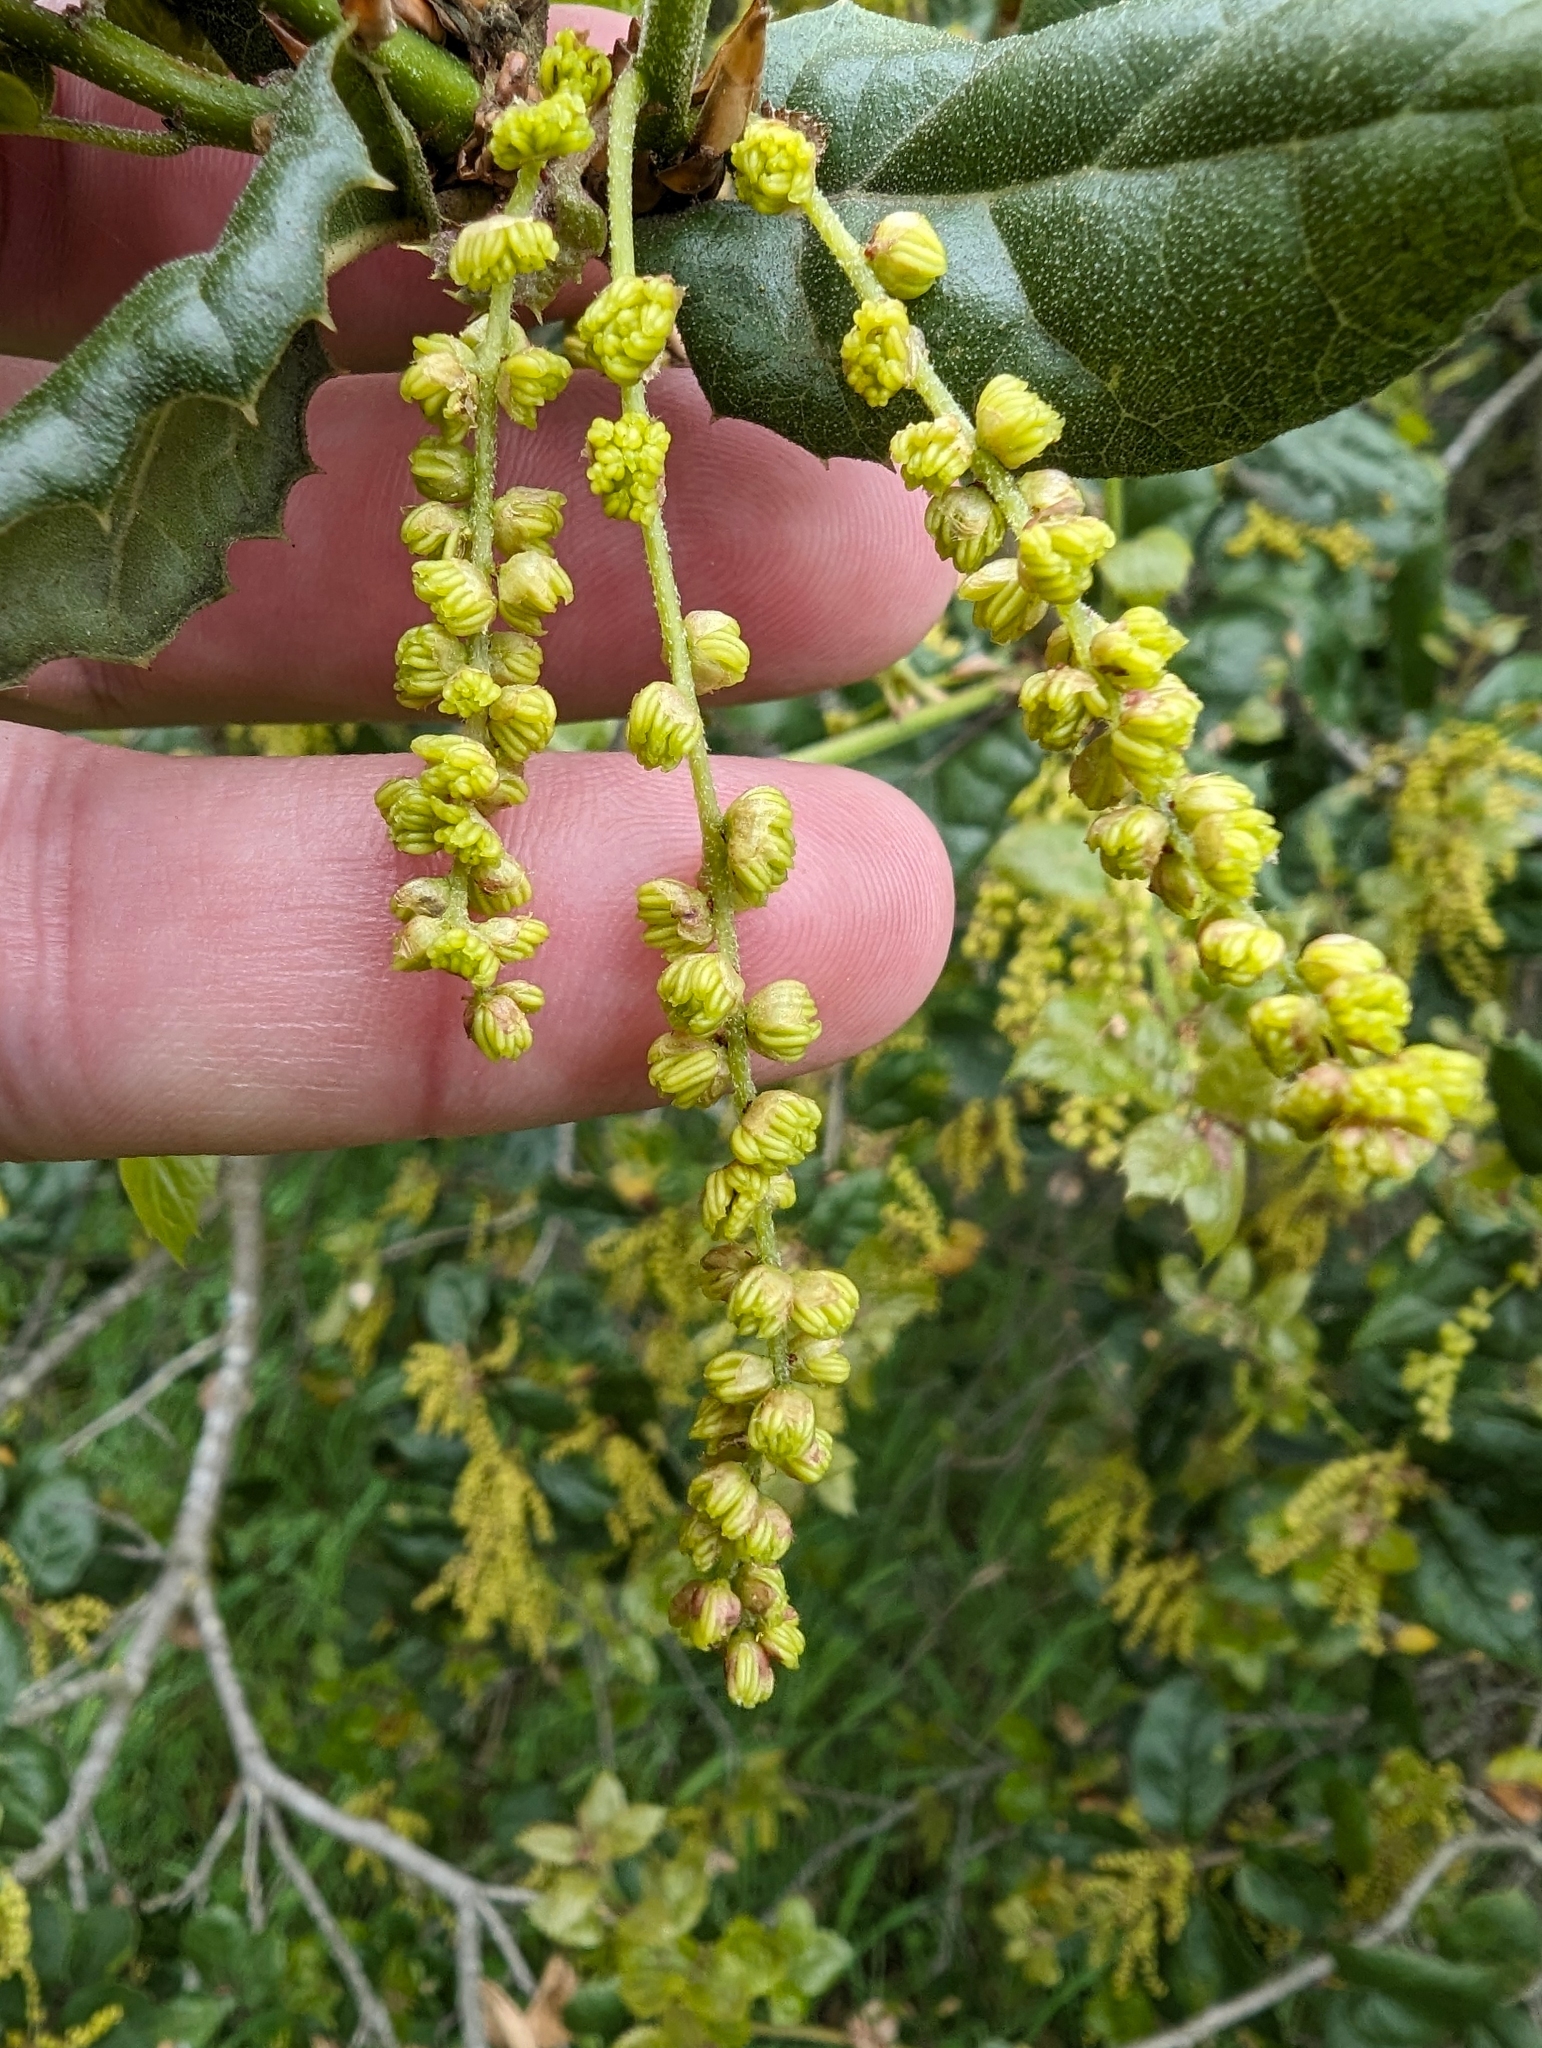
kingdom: Plantae
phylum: Tracheophyta
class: Magnoliopsida
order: Fagales
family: Fagaceae
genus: Quercus
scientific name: Quercus agrifolia
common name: California live oak
